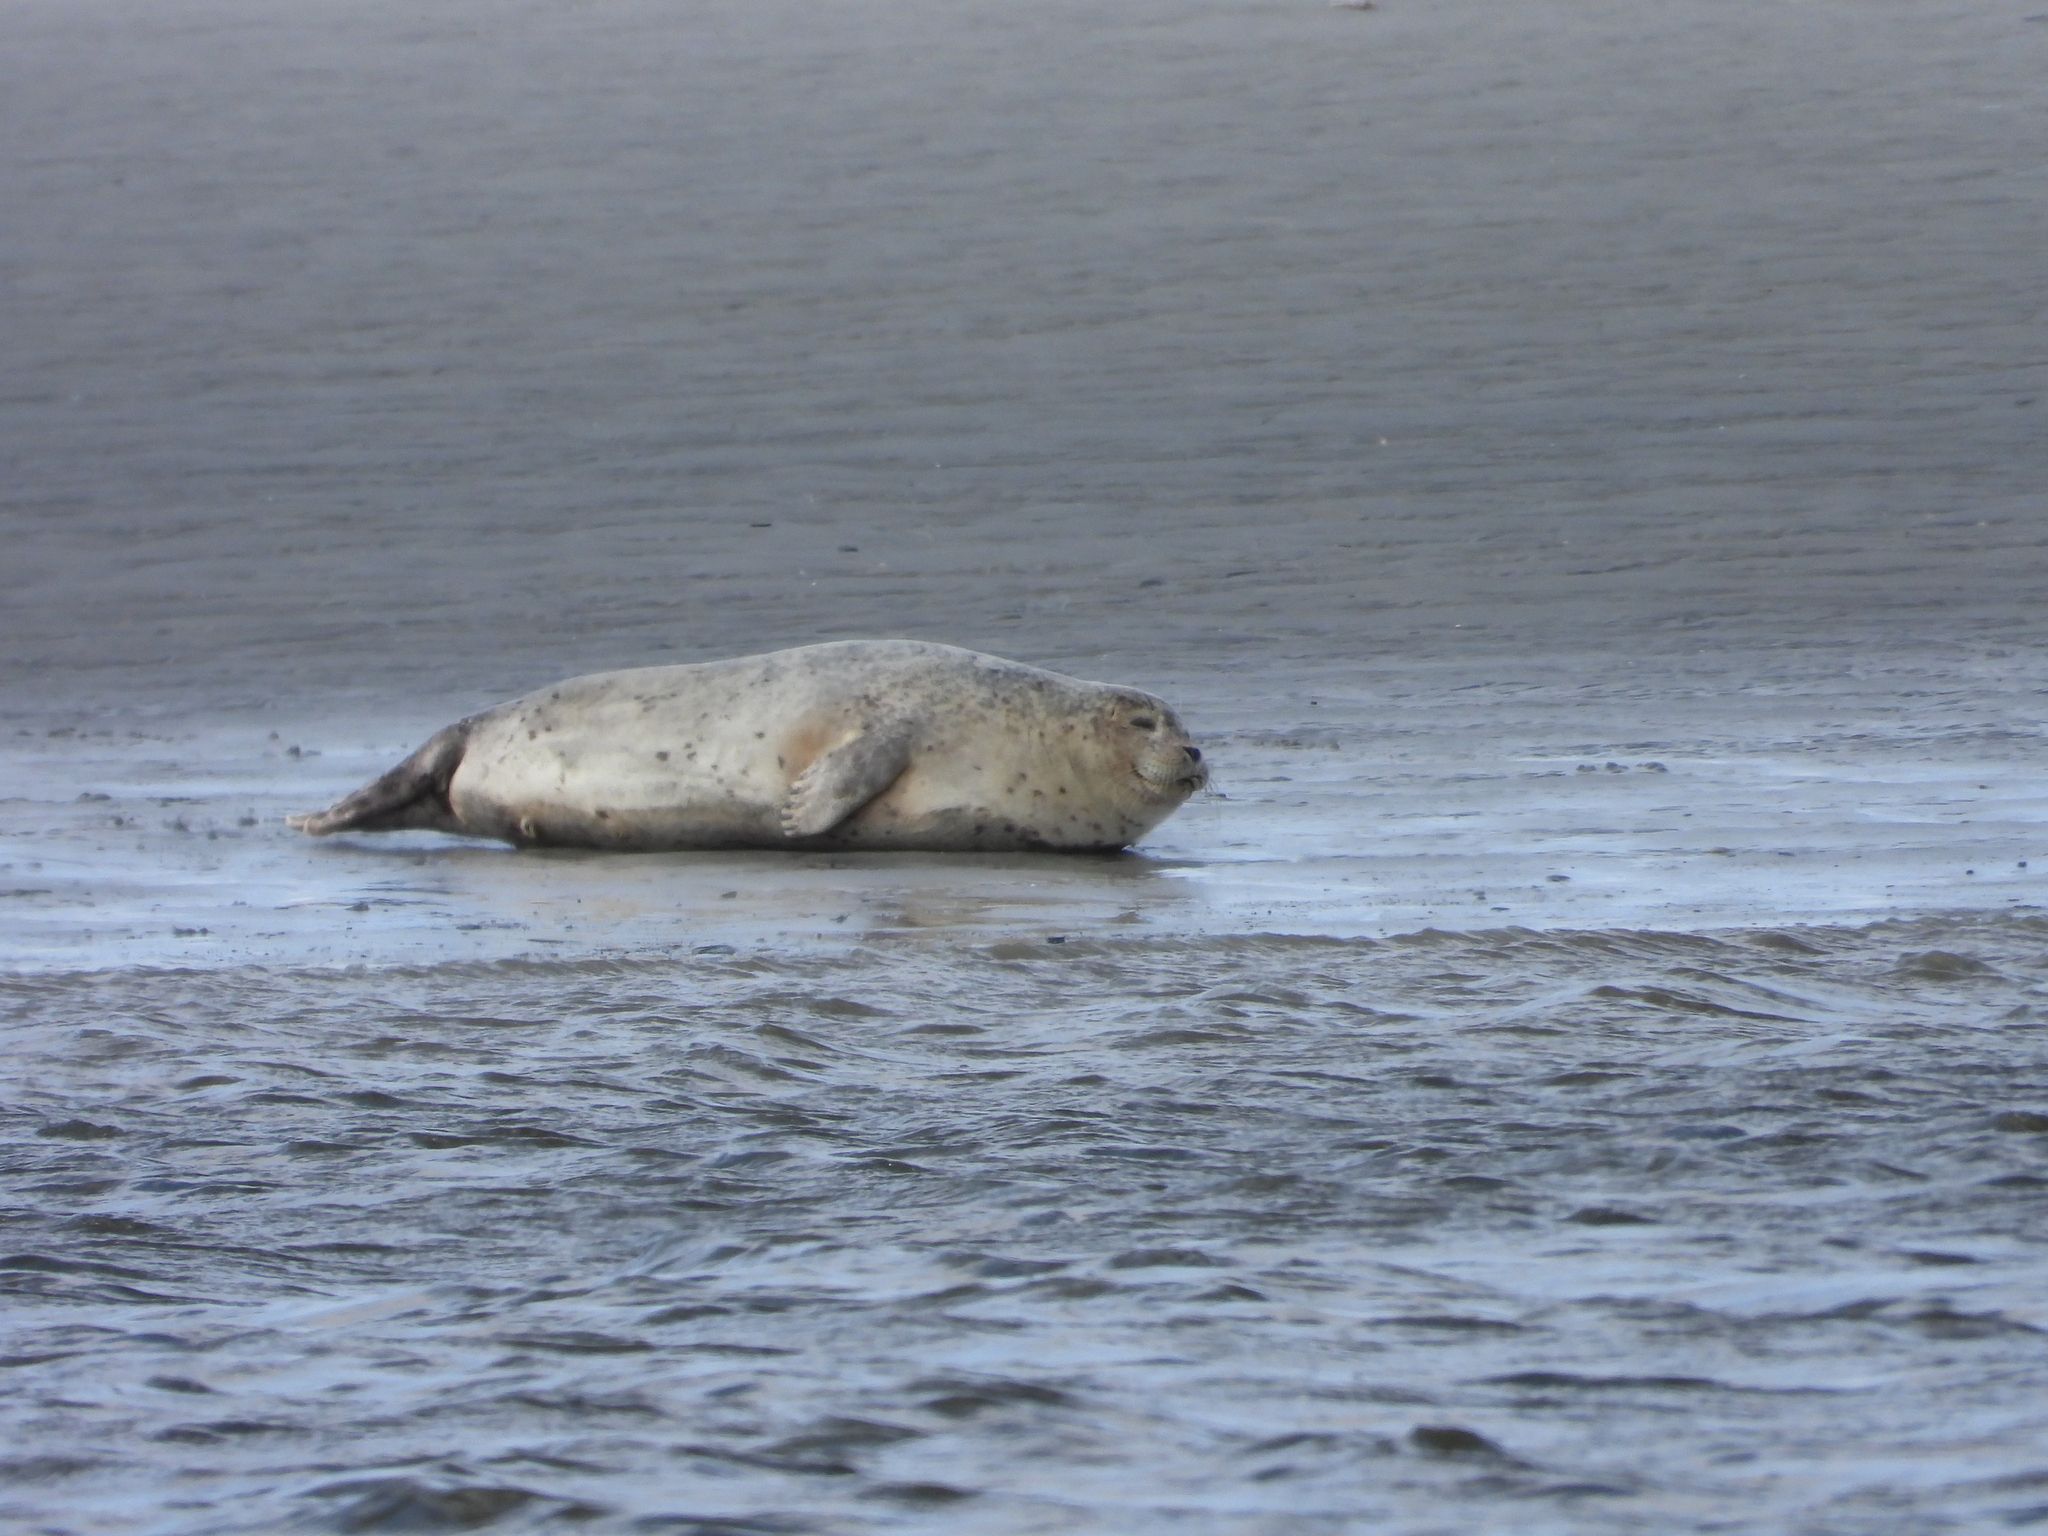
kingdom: Animalia
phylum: Chordata
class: Mammalia
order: Carnivora
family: Phocidae
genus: Phoca
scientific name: Phoca vitulina
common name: Harbor seal
